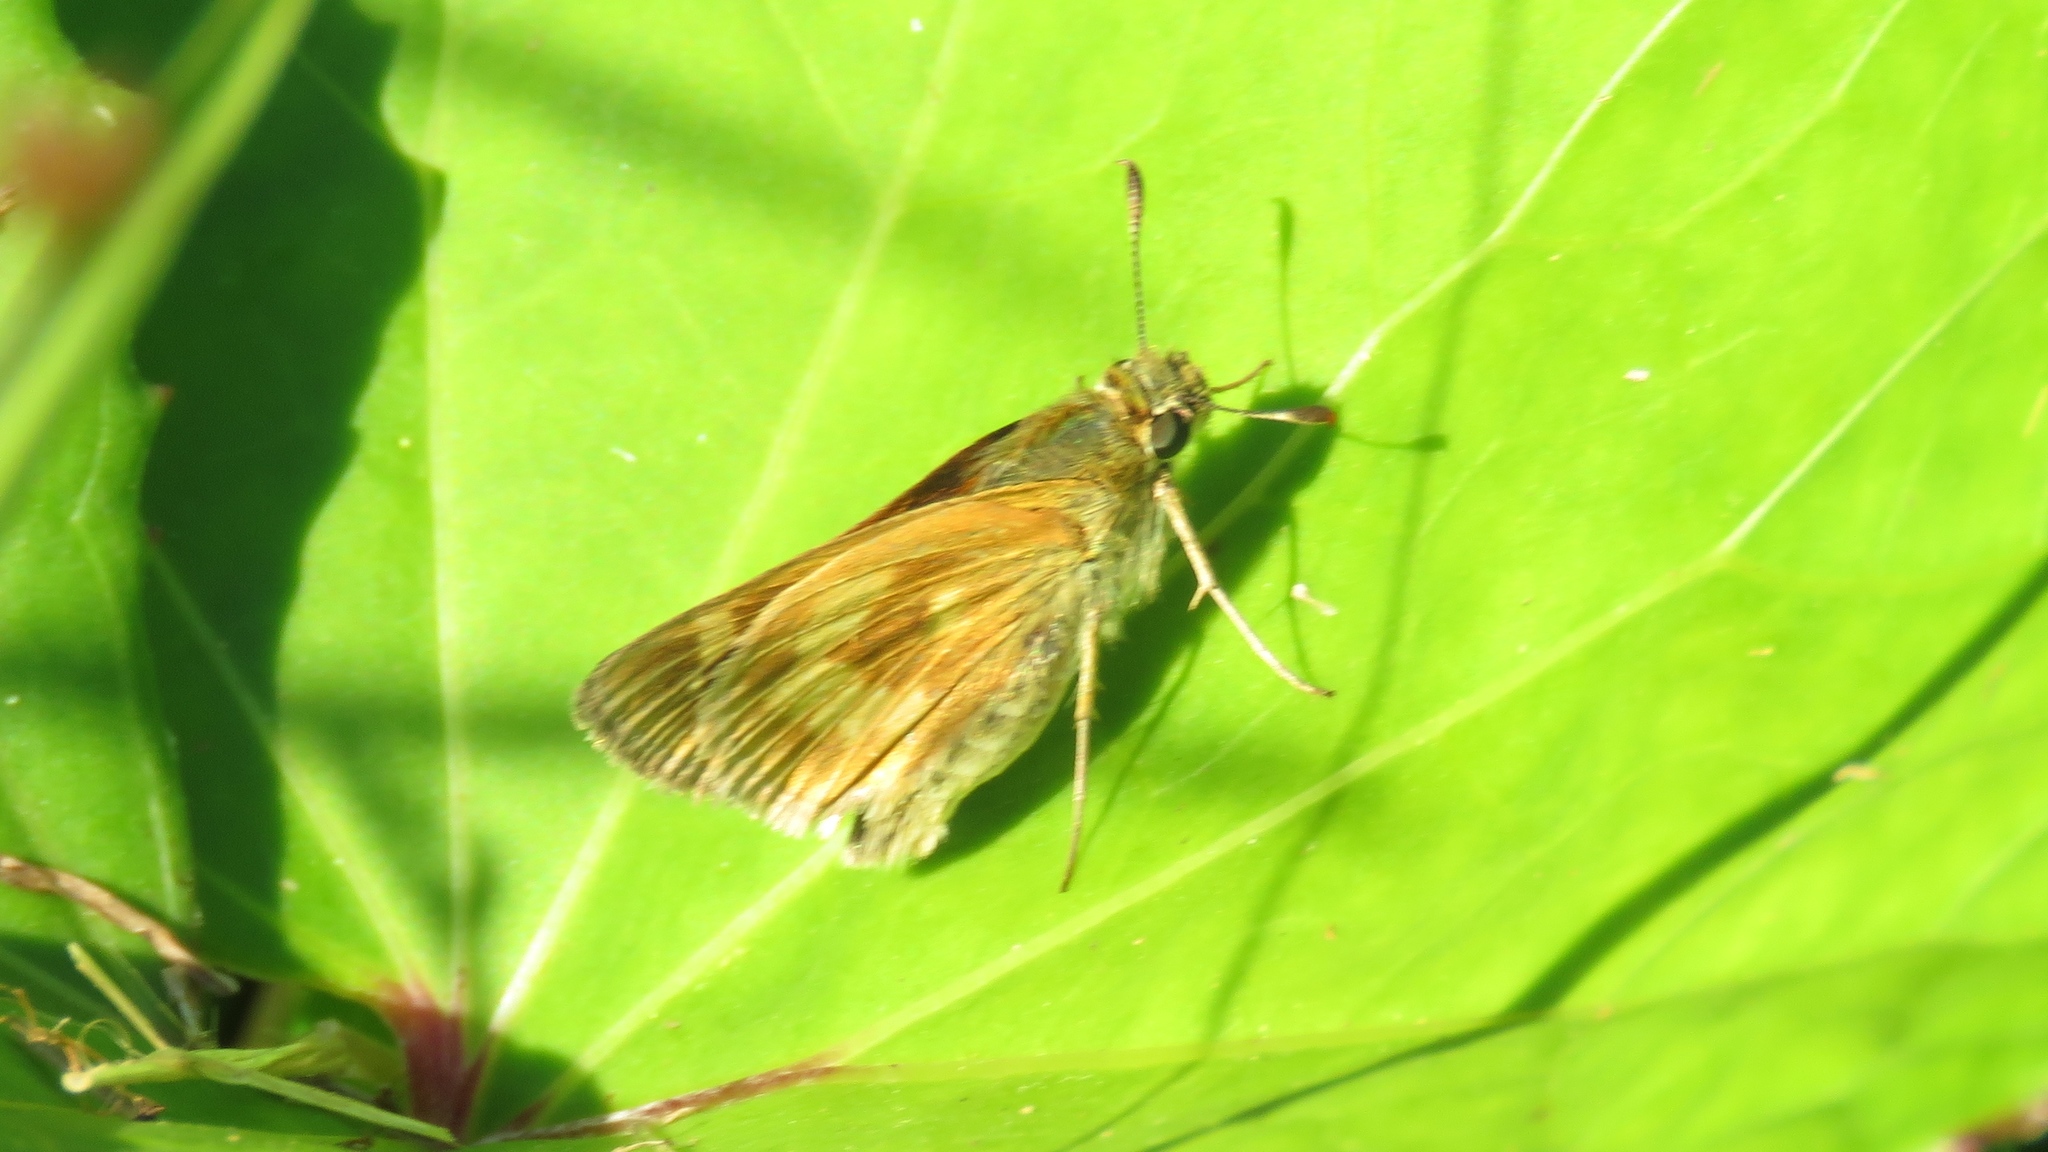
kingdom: Animalia
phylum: Arthropoda
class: Insecta
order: Lepidoptera
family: Hesperiidae
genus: Polites
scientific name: Polites mystic
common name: Long dash
